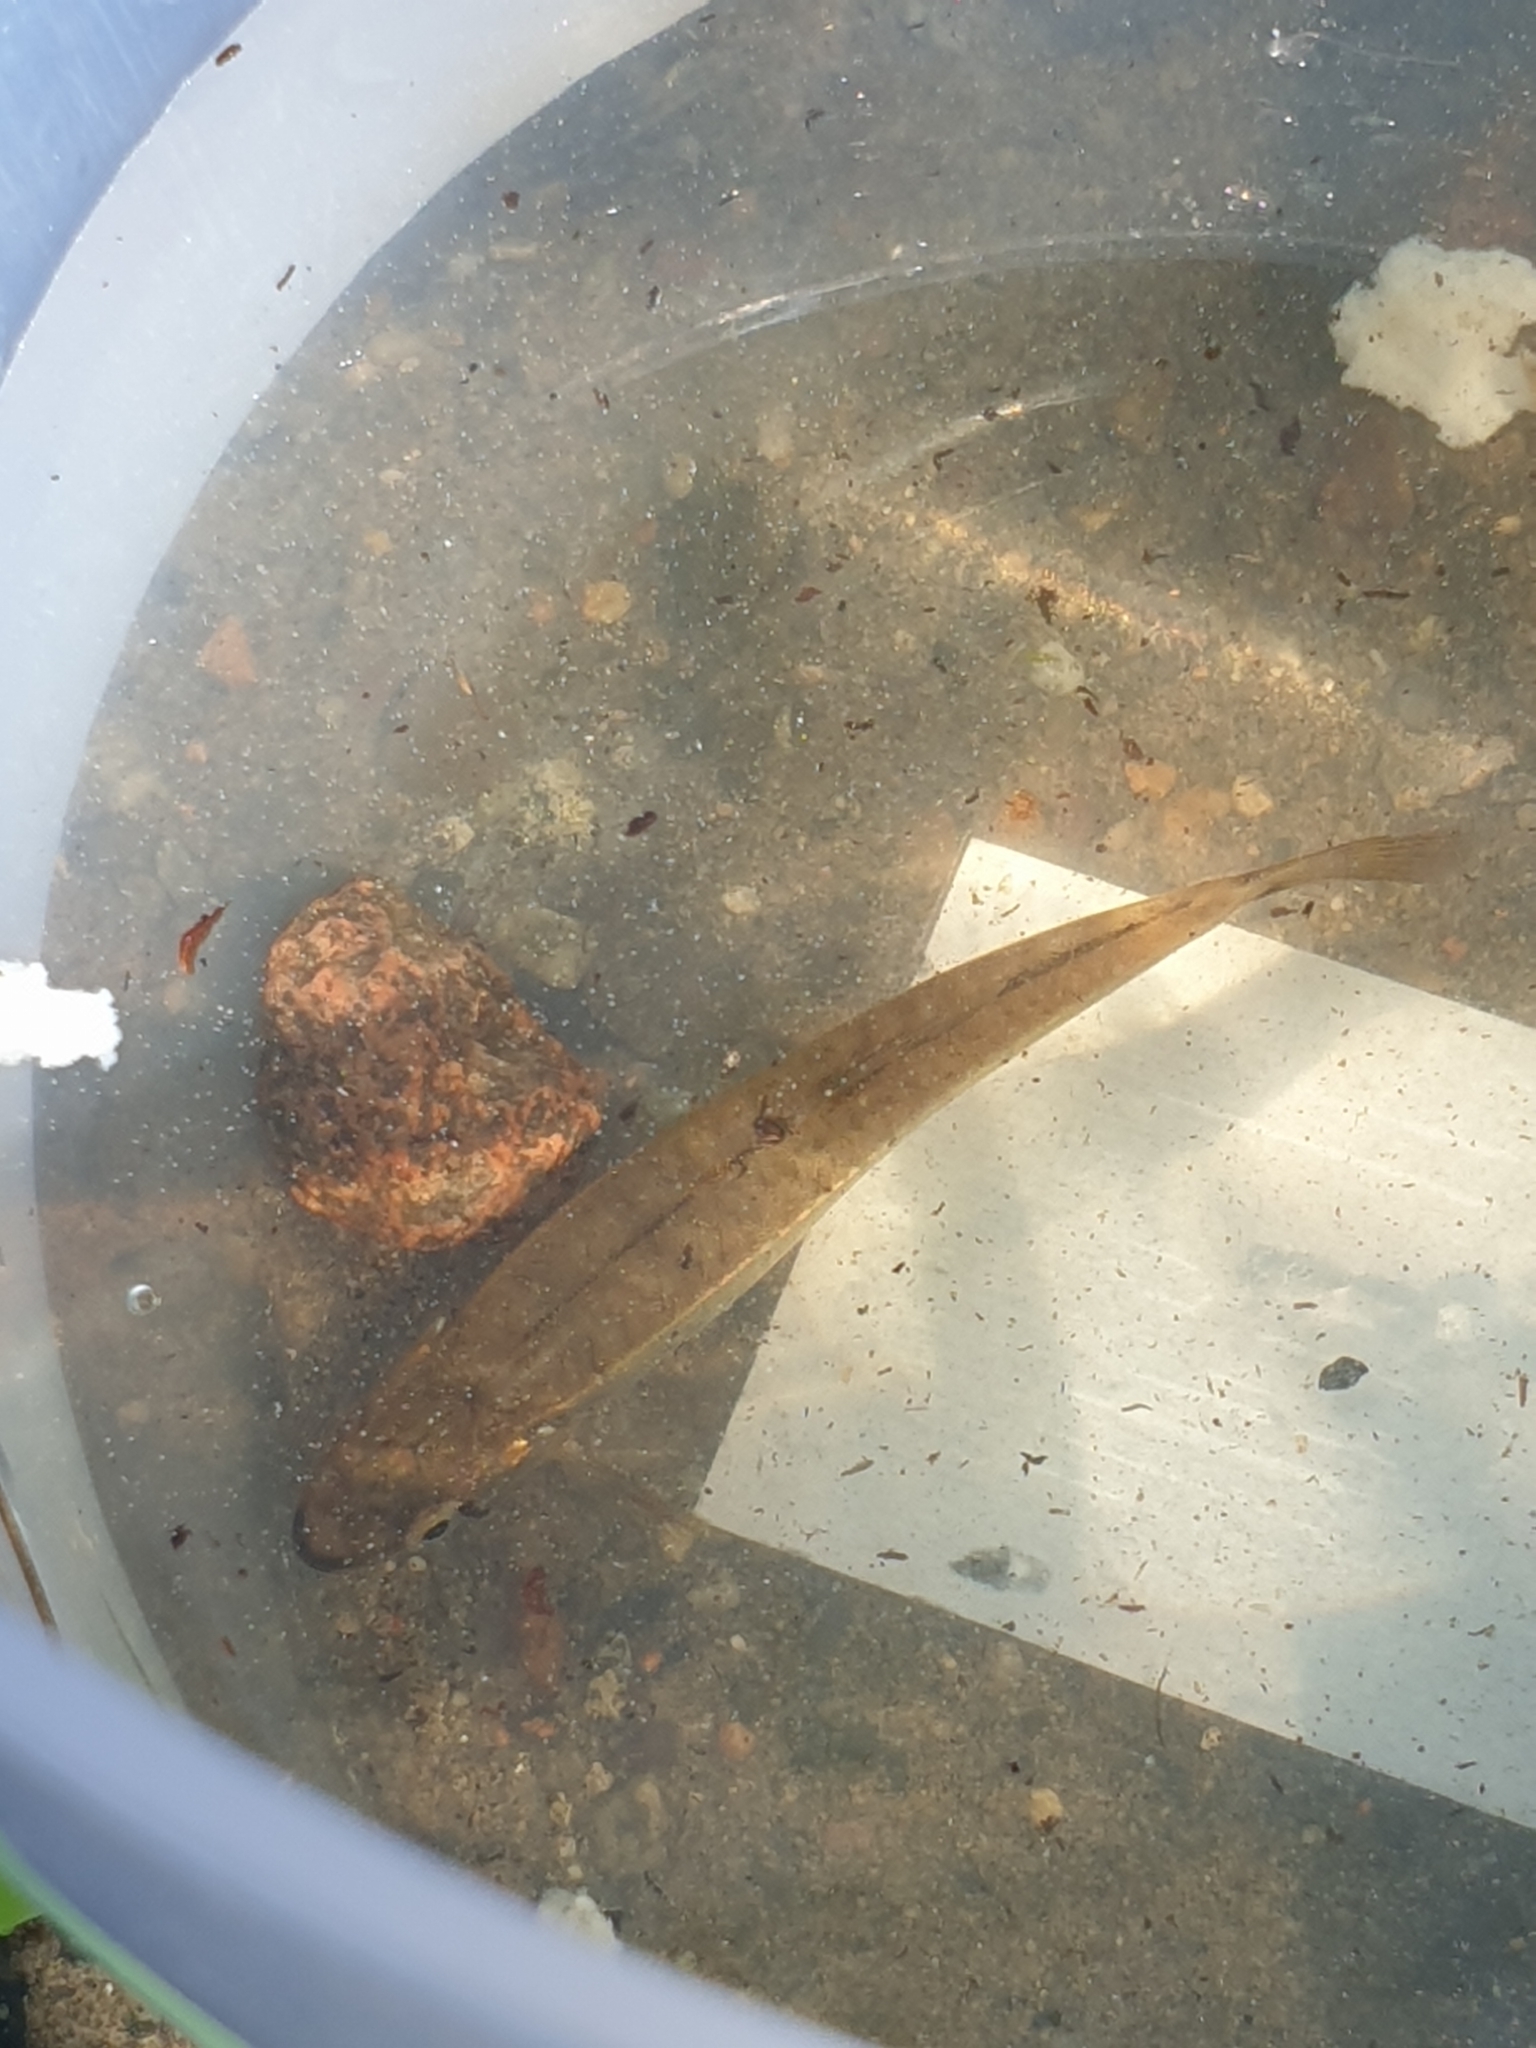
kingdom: Animalia
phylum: Chordata
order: Cypriniformes
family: Cyprinidae
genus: Phoxinus
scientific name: Phoxinus phoxinus
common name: Minnow
